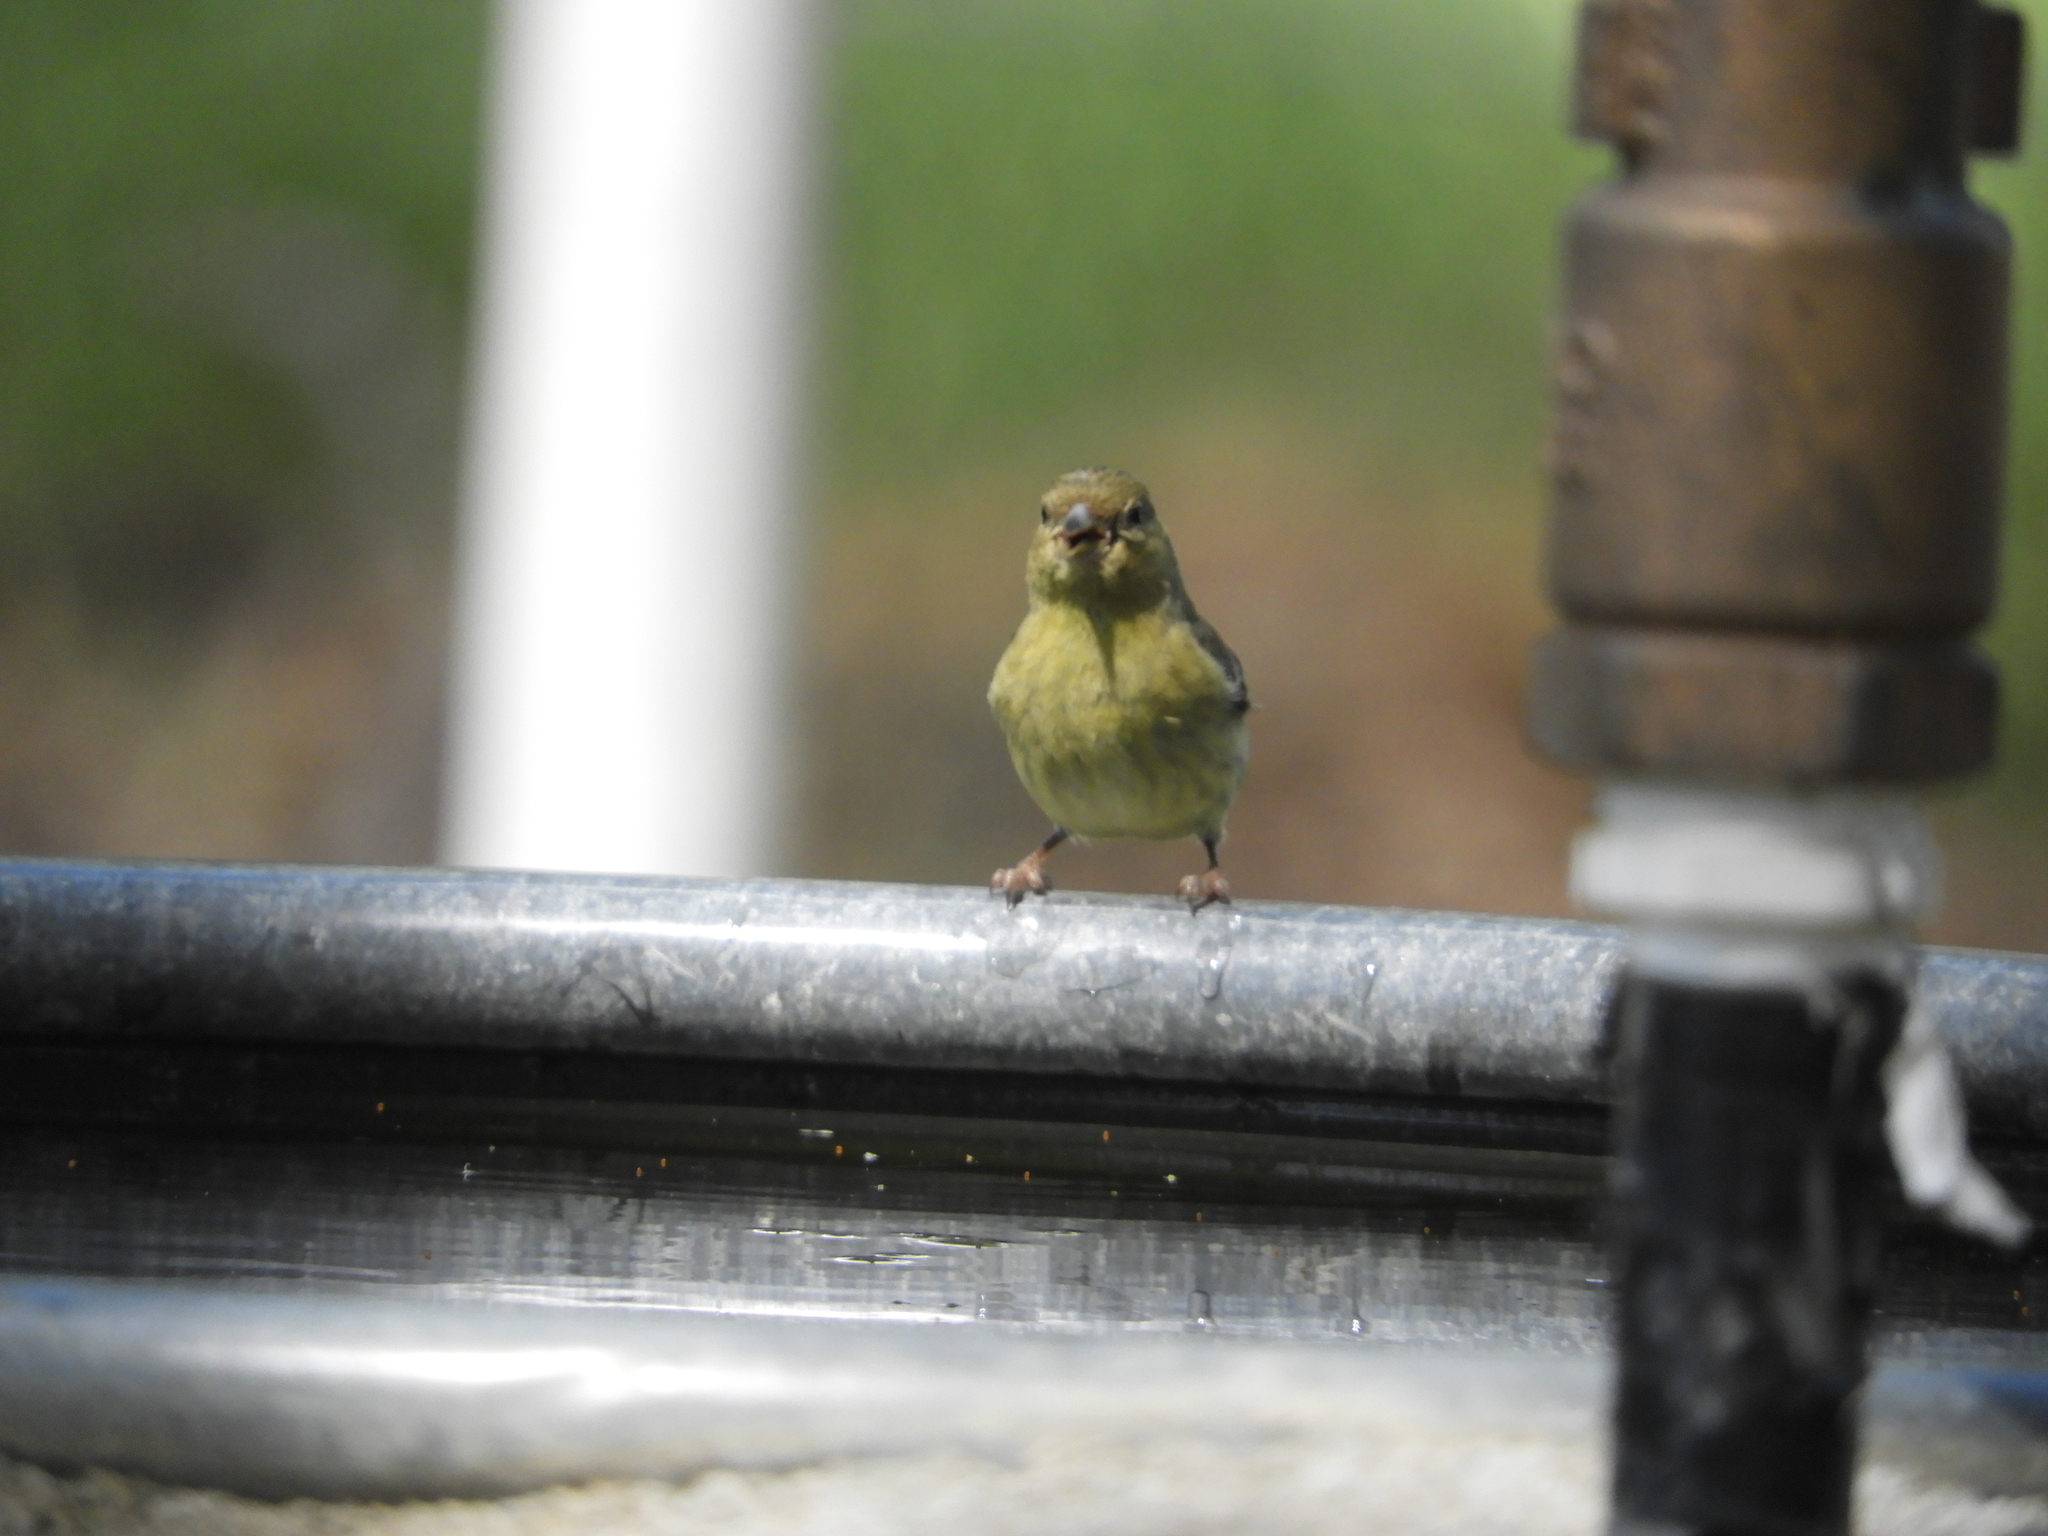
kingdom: Animalia
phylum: Chordata
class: Aves
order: Passeriformes
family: Fringillidae
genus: Spinus
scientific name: Spinus psaltria
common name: Lesser goldfinch
